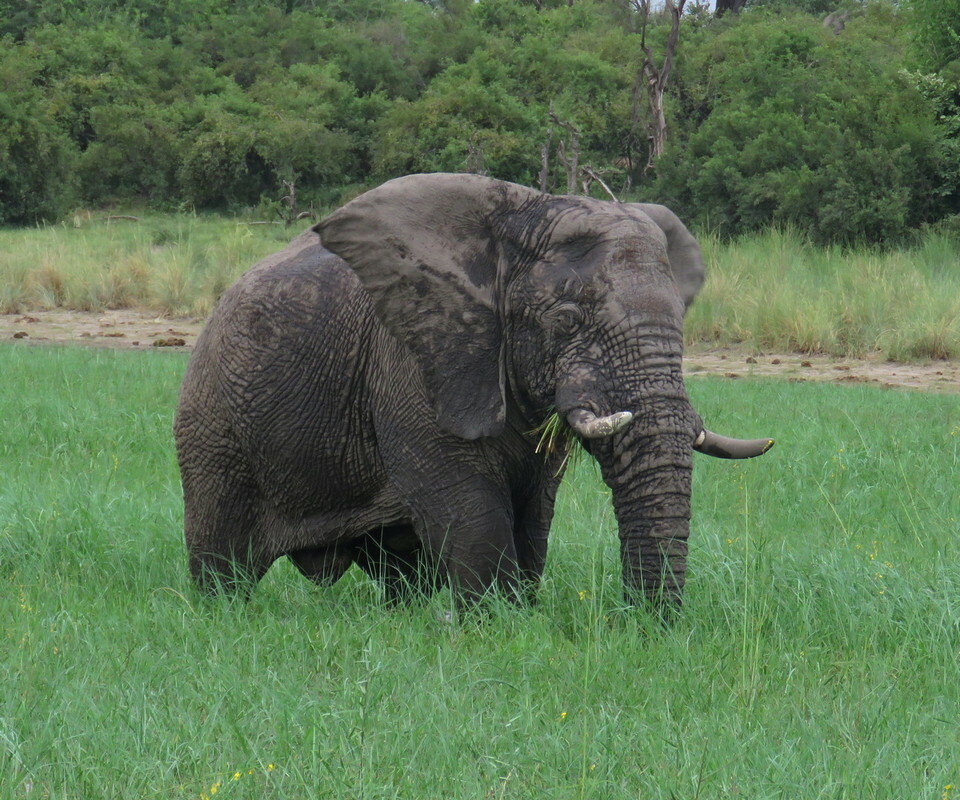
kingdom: Animalia
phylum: Chordata
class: Mammalia
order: Proboscidea
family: Elephantidae
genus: Loxodonta
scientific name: Loxodonta africana
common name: African elephant
